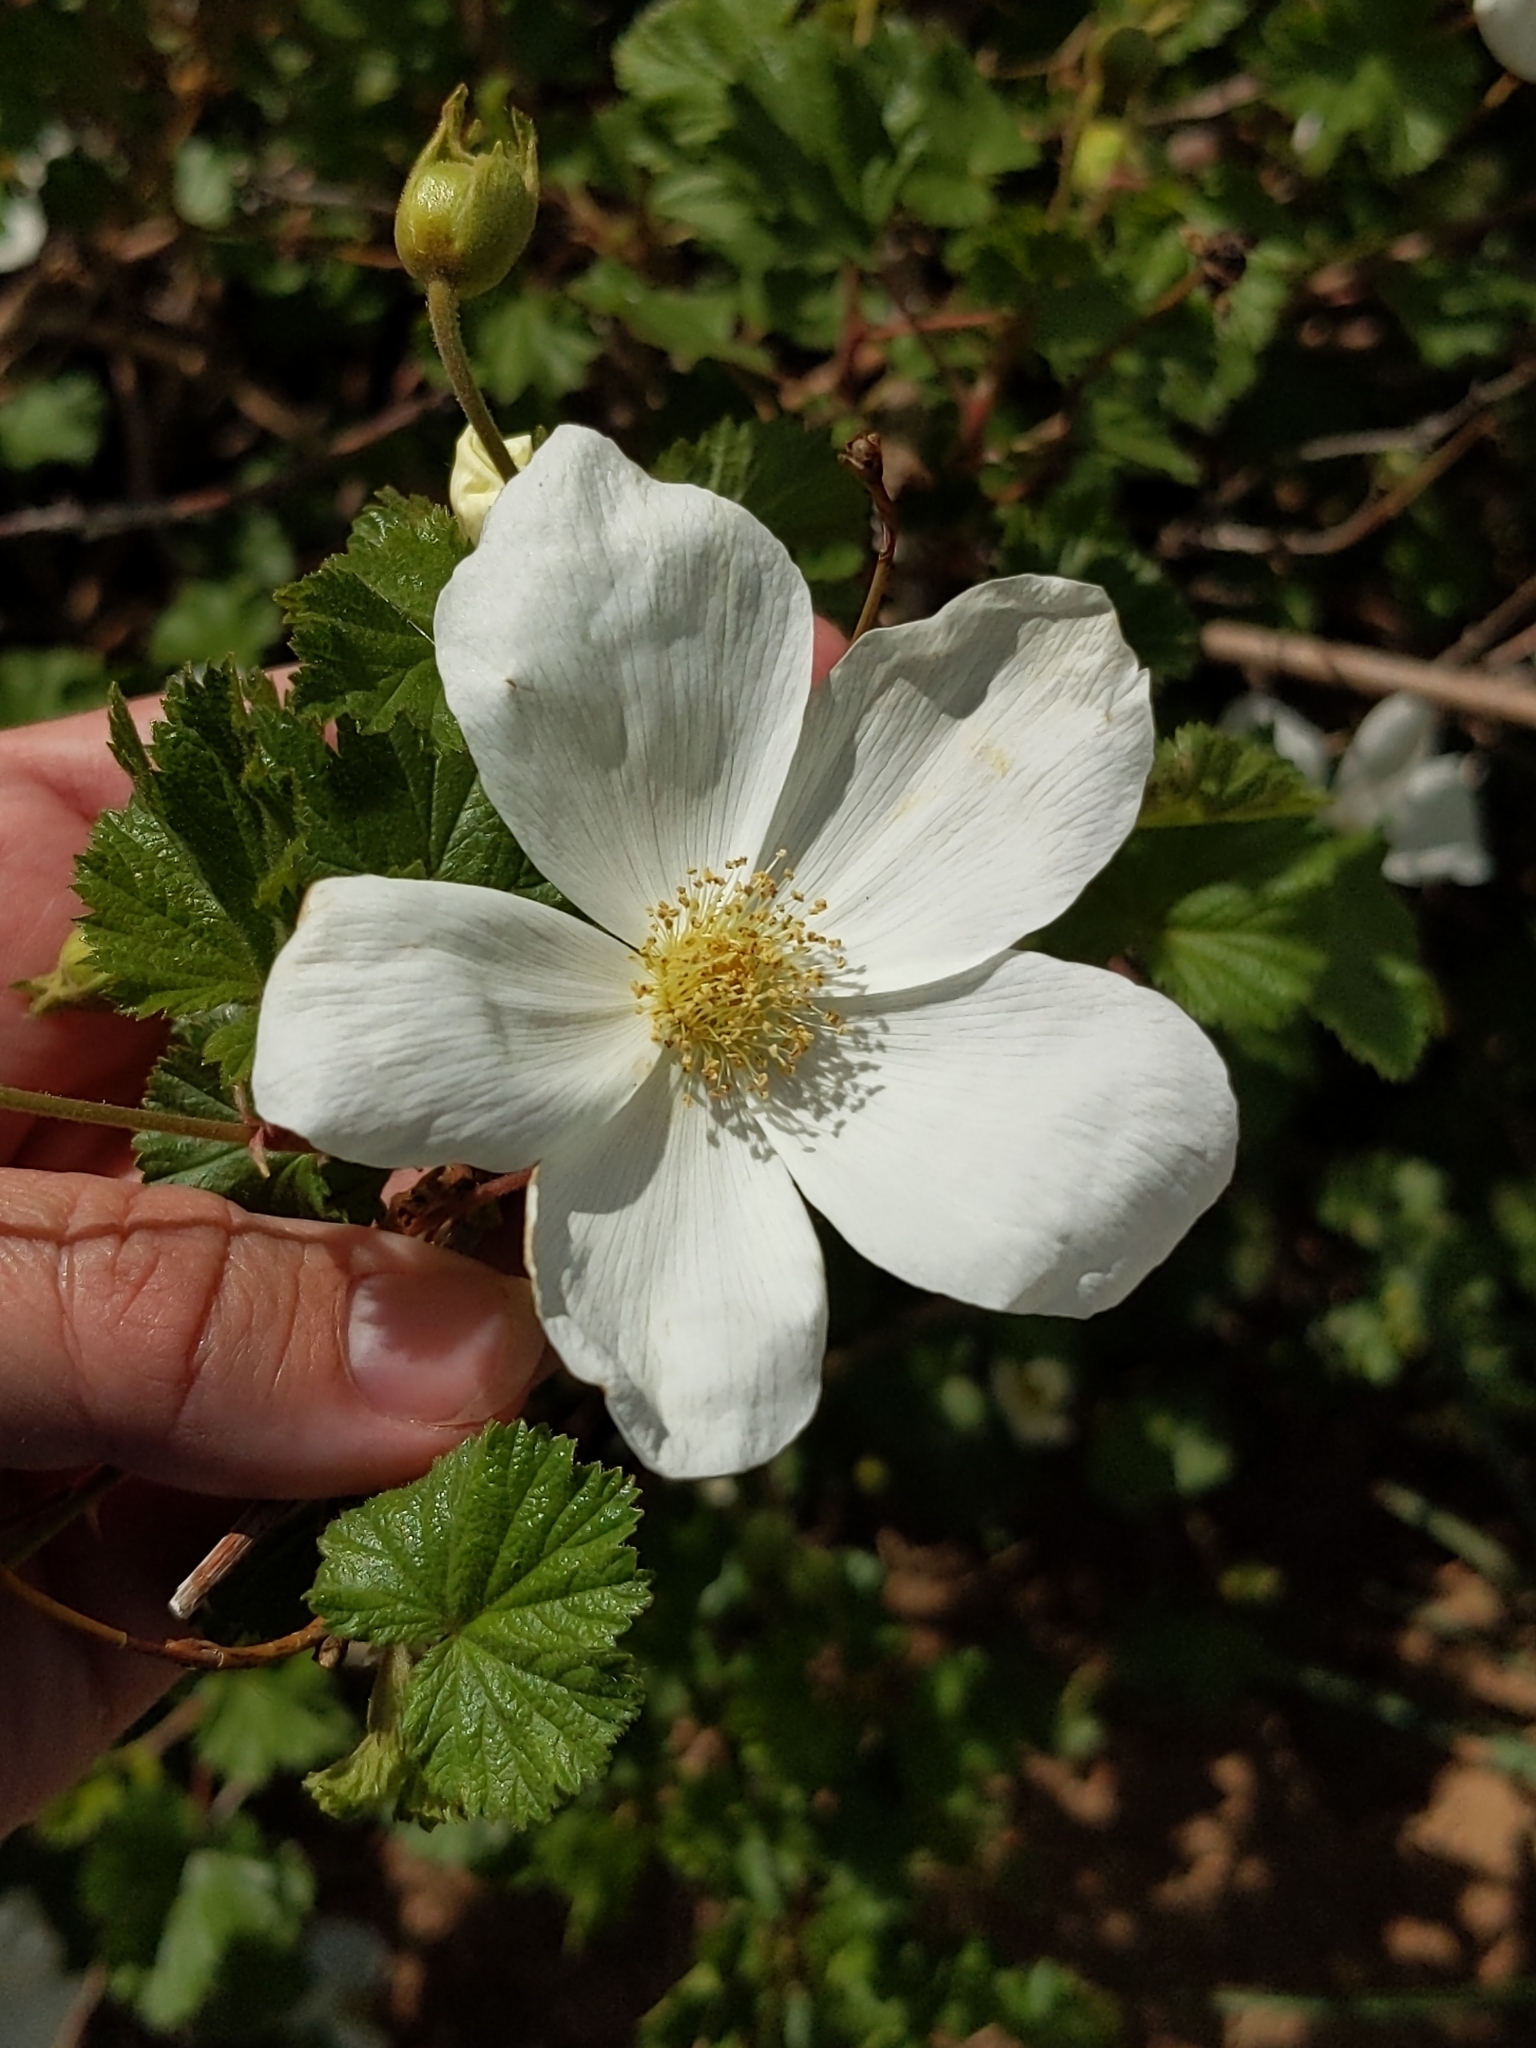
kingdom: Plantae
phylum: Tracheophyta
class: Magnoliopsida
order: Rosales
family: Rosaceae
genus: Rubus
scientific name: Rubus deliciosus
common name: Rocky mountain raspberry
